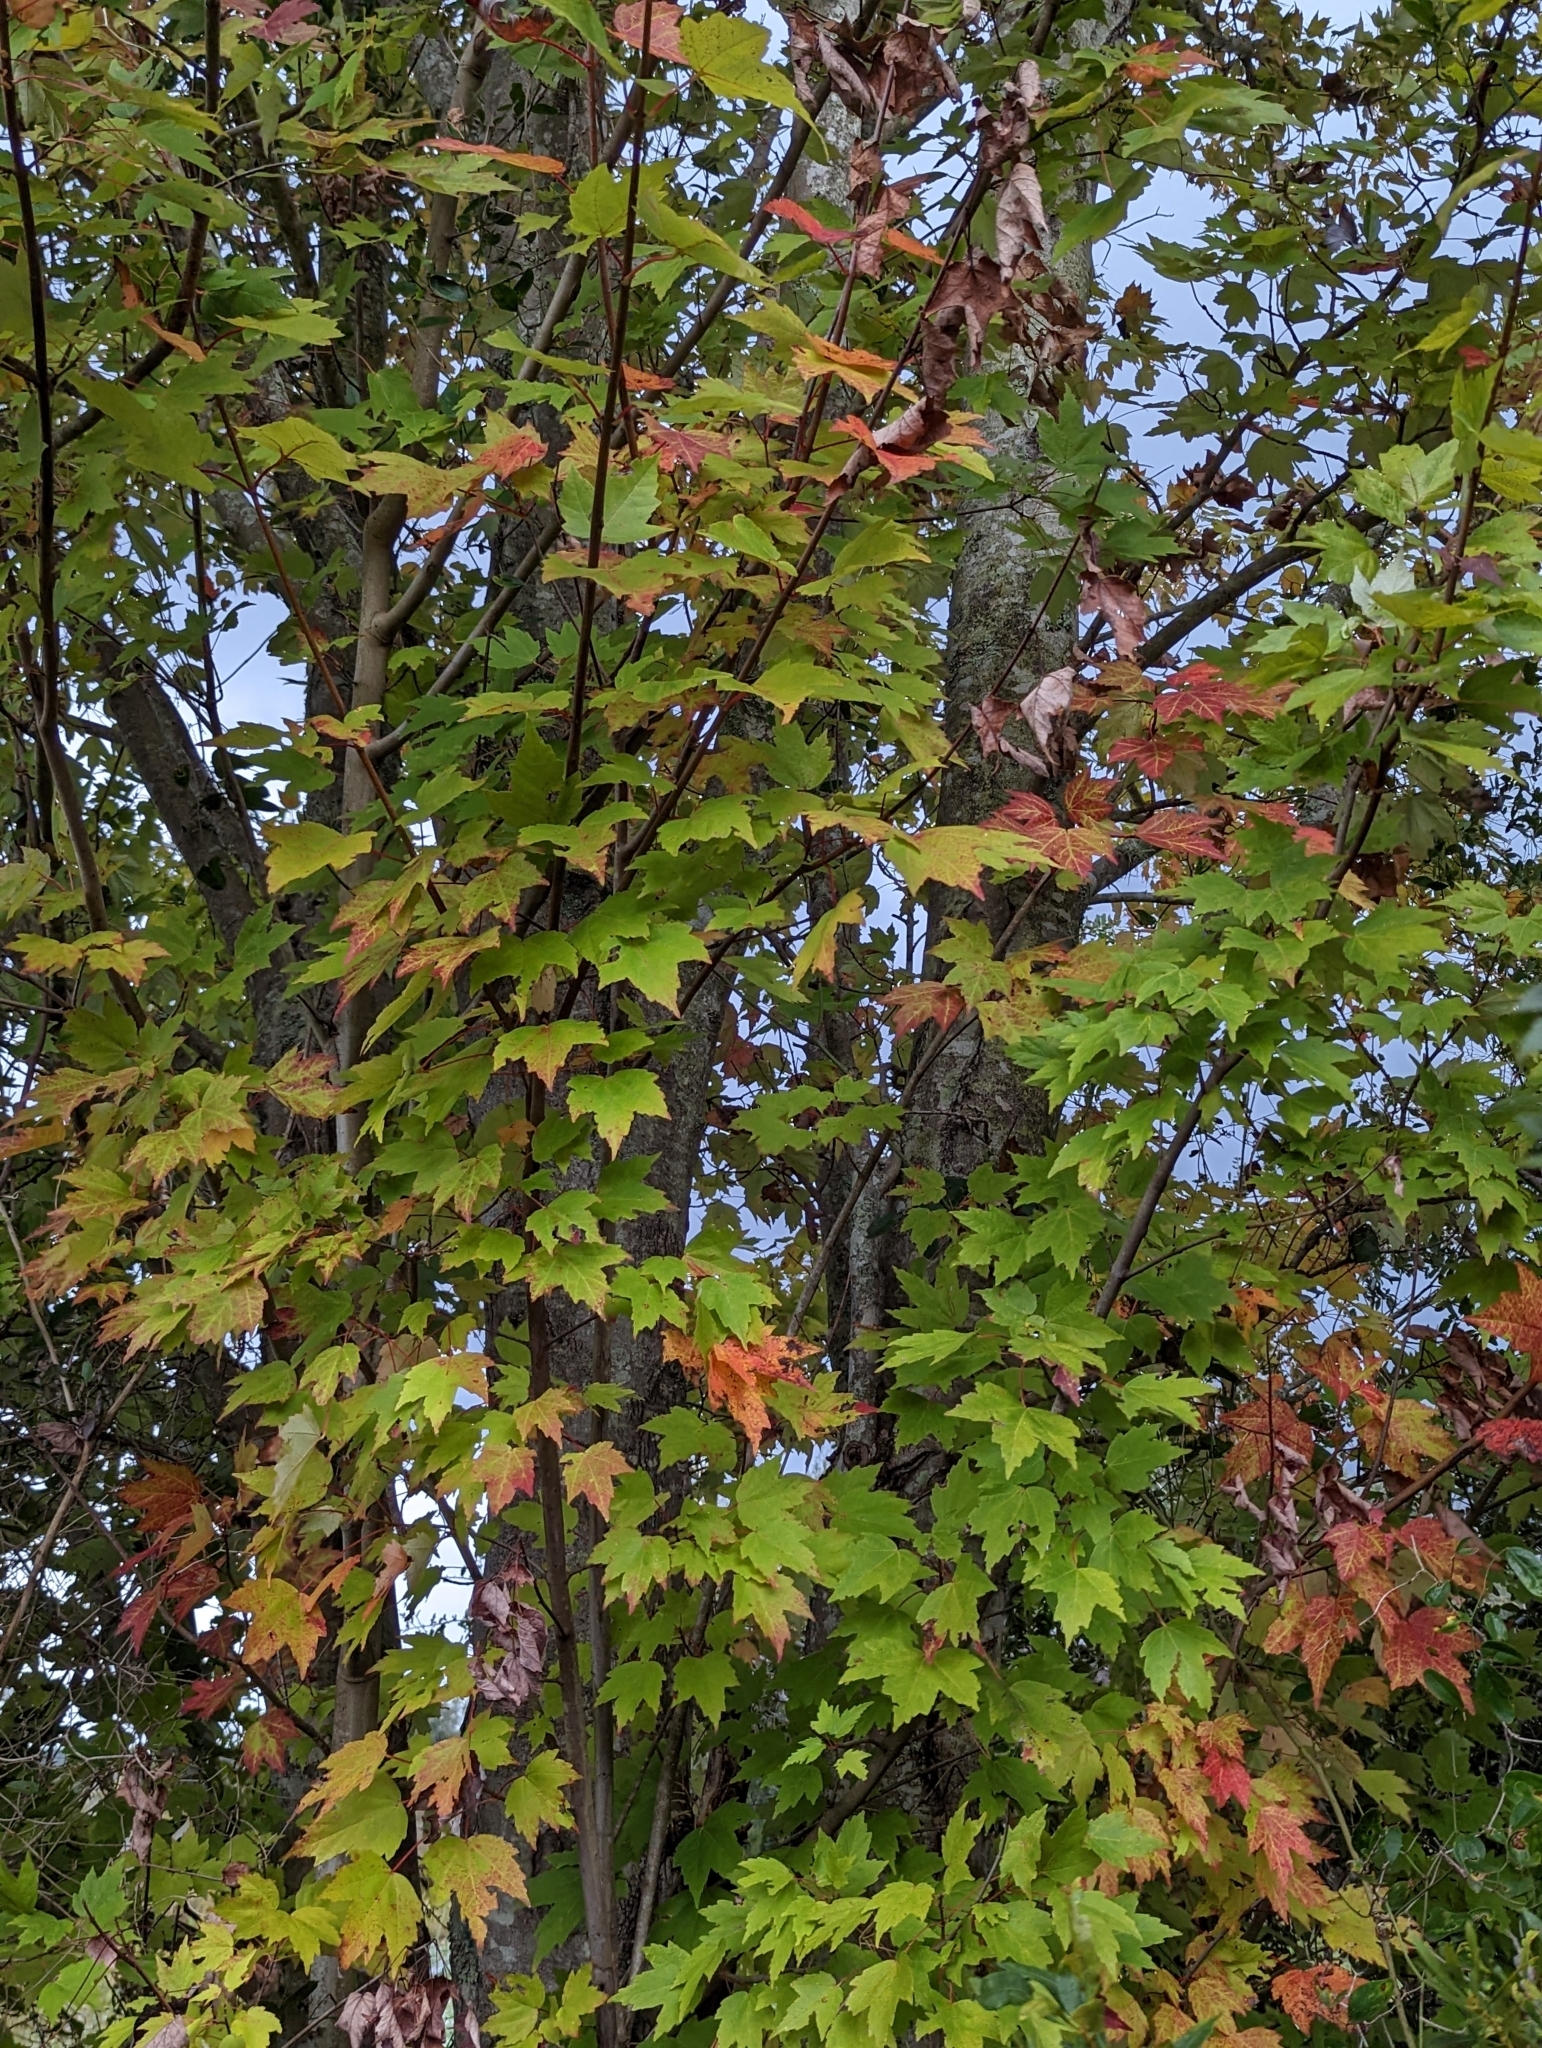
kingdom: Plantae
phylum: Tracheophyta
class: Magnoliopsida
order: Sapindales
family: Sapindaceae
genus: Acer
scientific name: Acer rubrum
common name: Red maple
